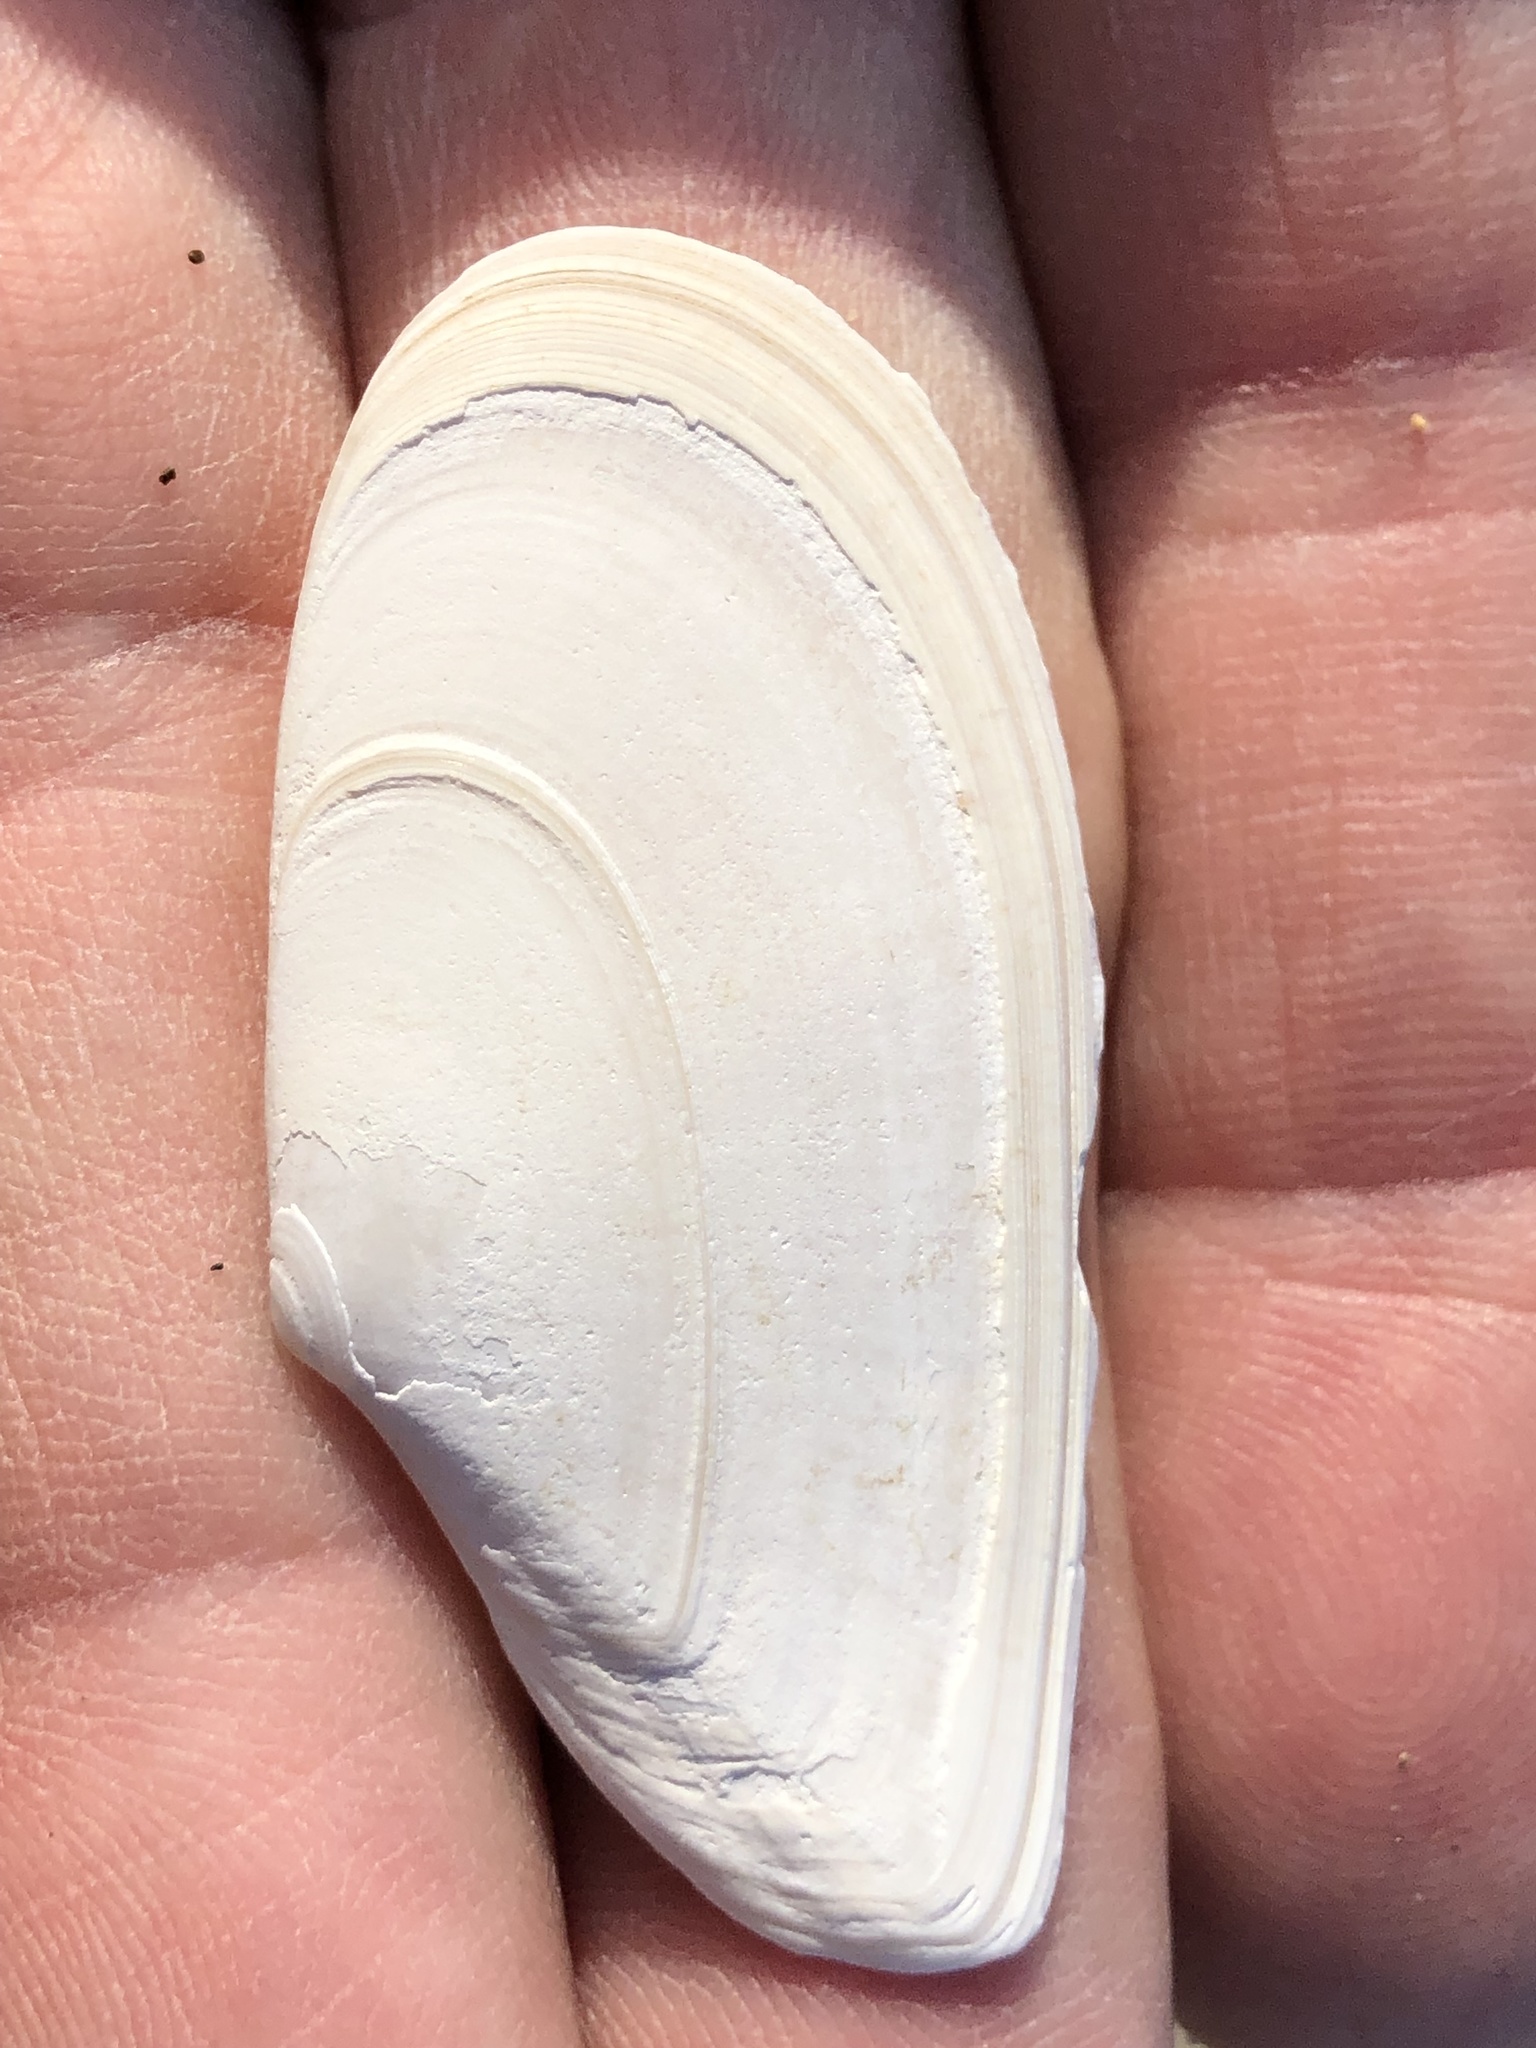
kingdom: Animalia
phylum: Mollusca
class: Bivalvia
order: Cardiida
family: Tellinidae
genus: Megangulus
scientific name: Megangulus bodegensis
